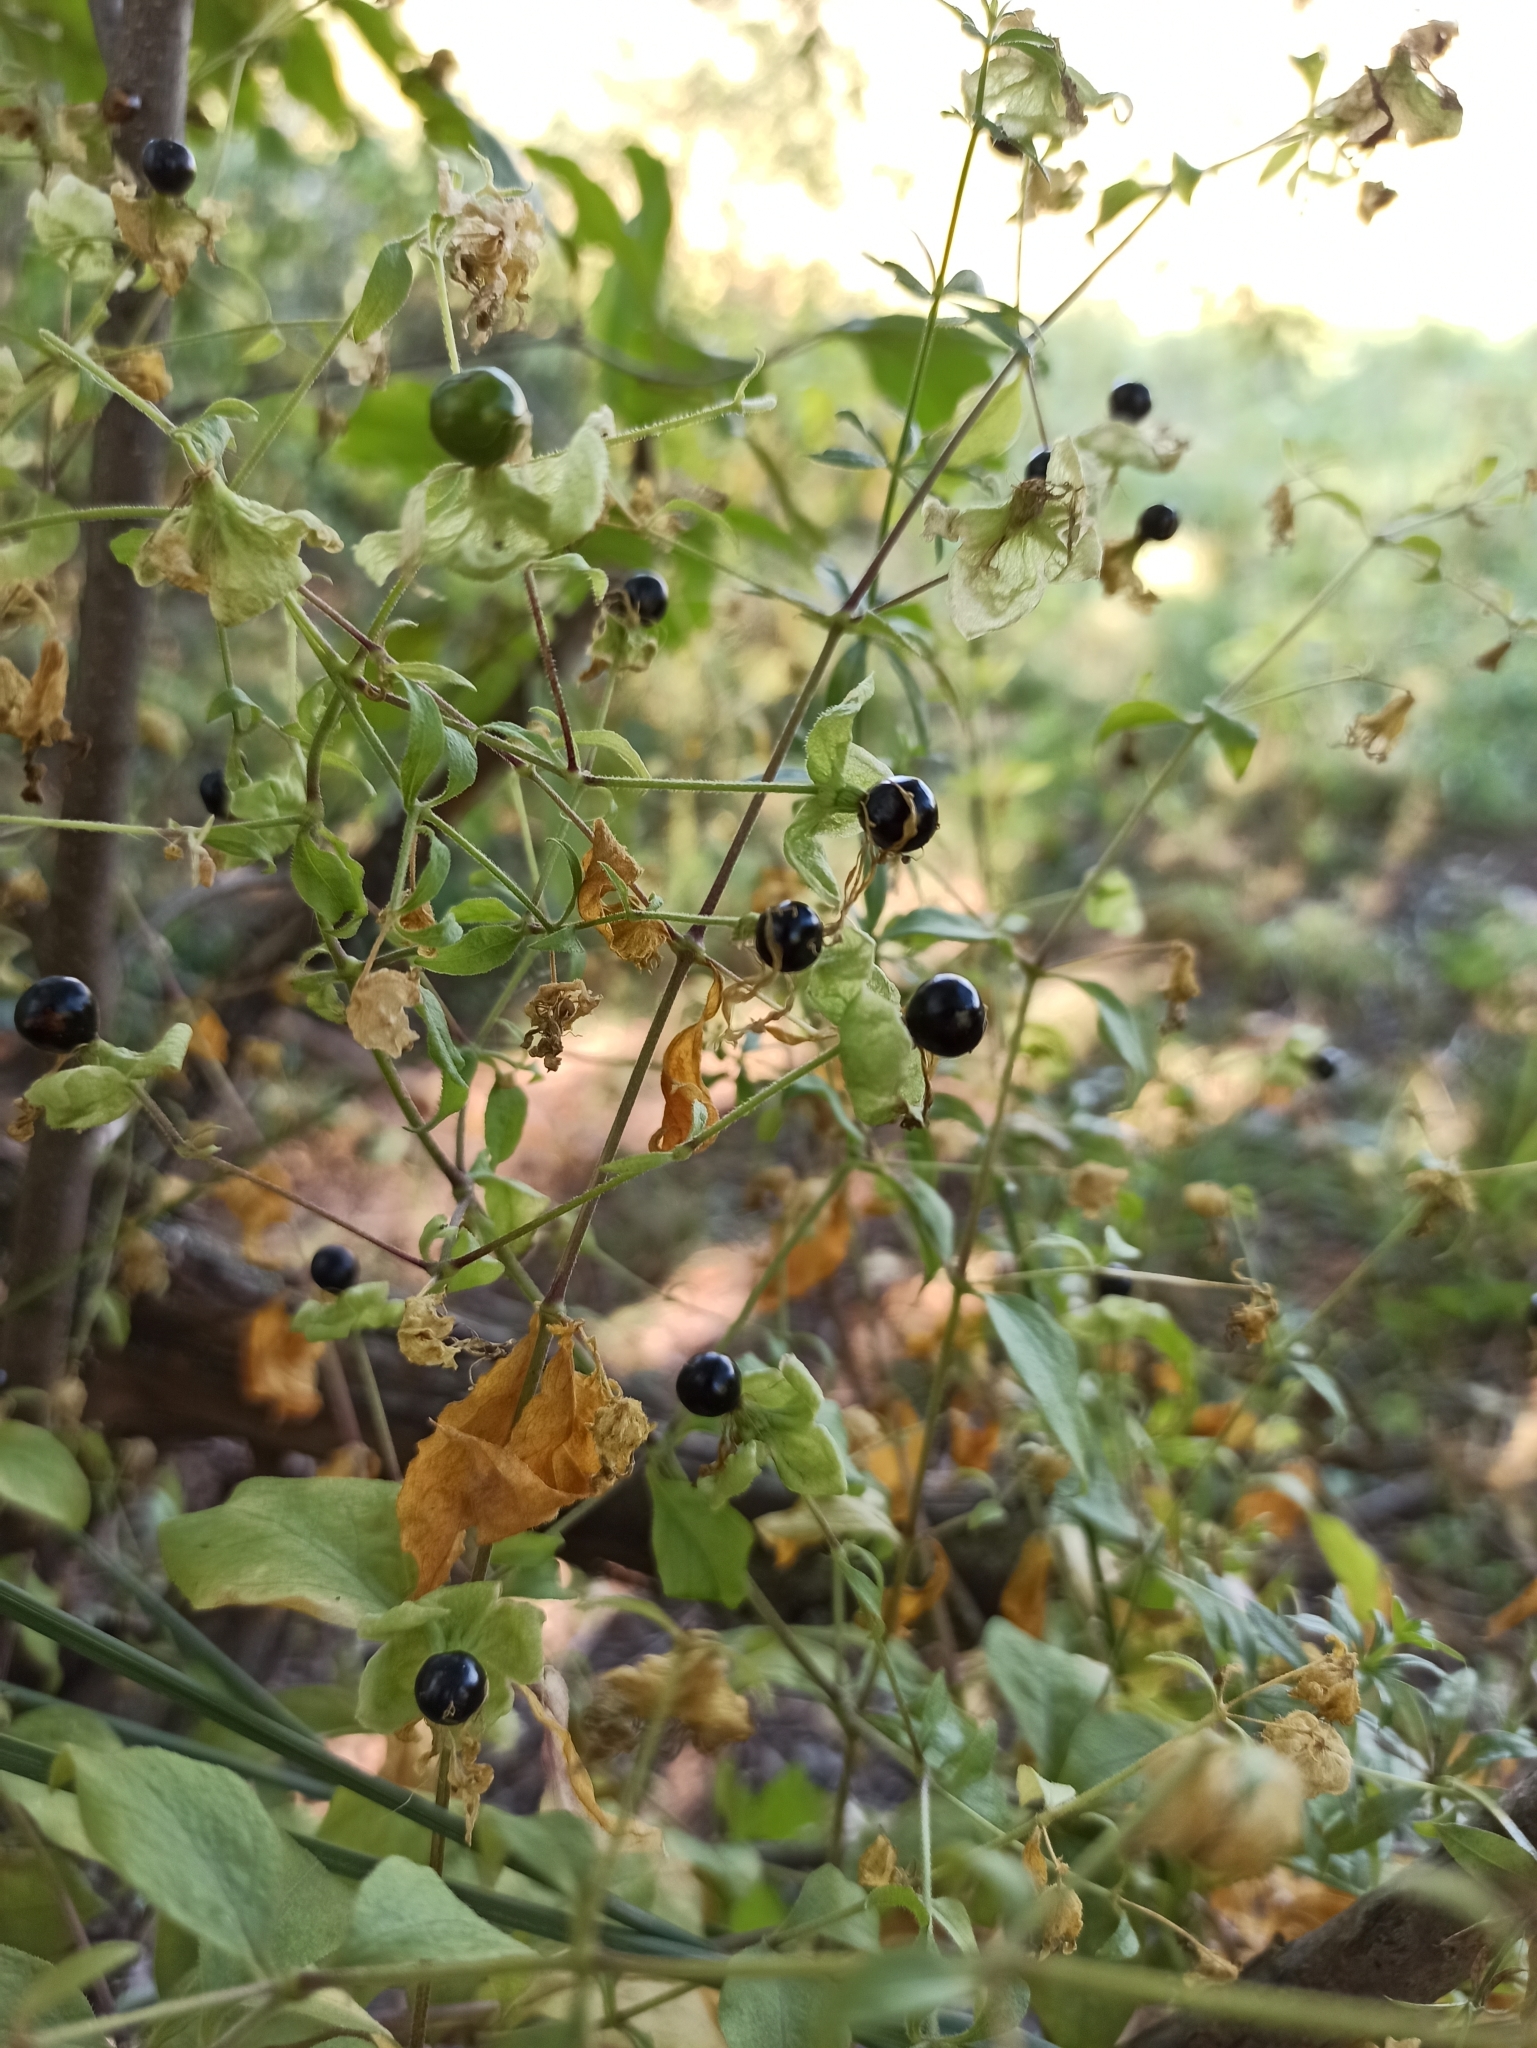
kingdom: Plantae
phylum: Tracheophyta
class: Magnoliopsida
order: Caryophyllales
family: Caryophyllaceae
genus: Silene
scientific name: Silene baccifera
